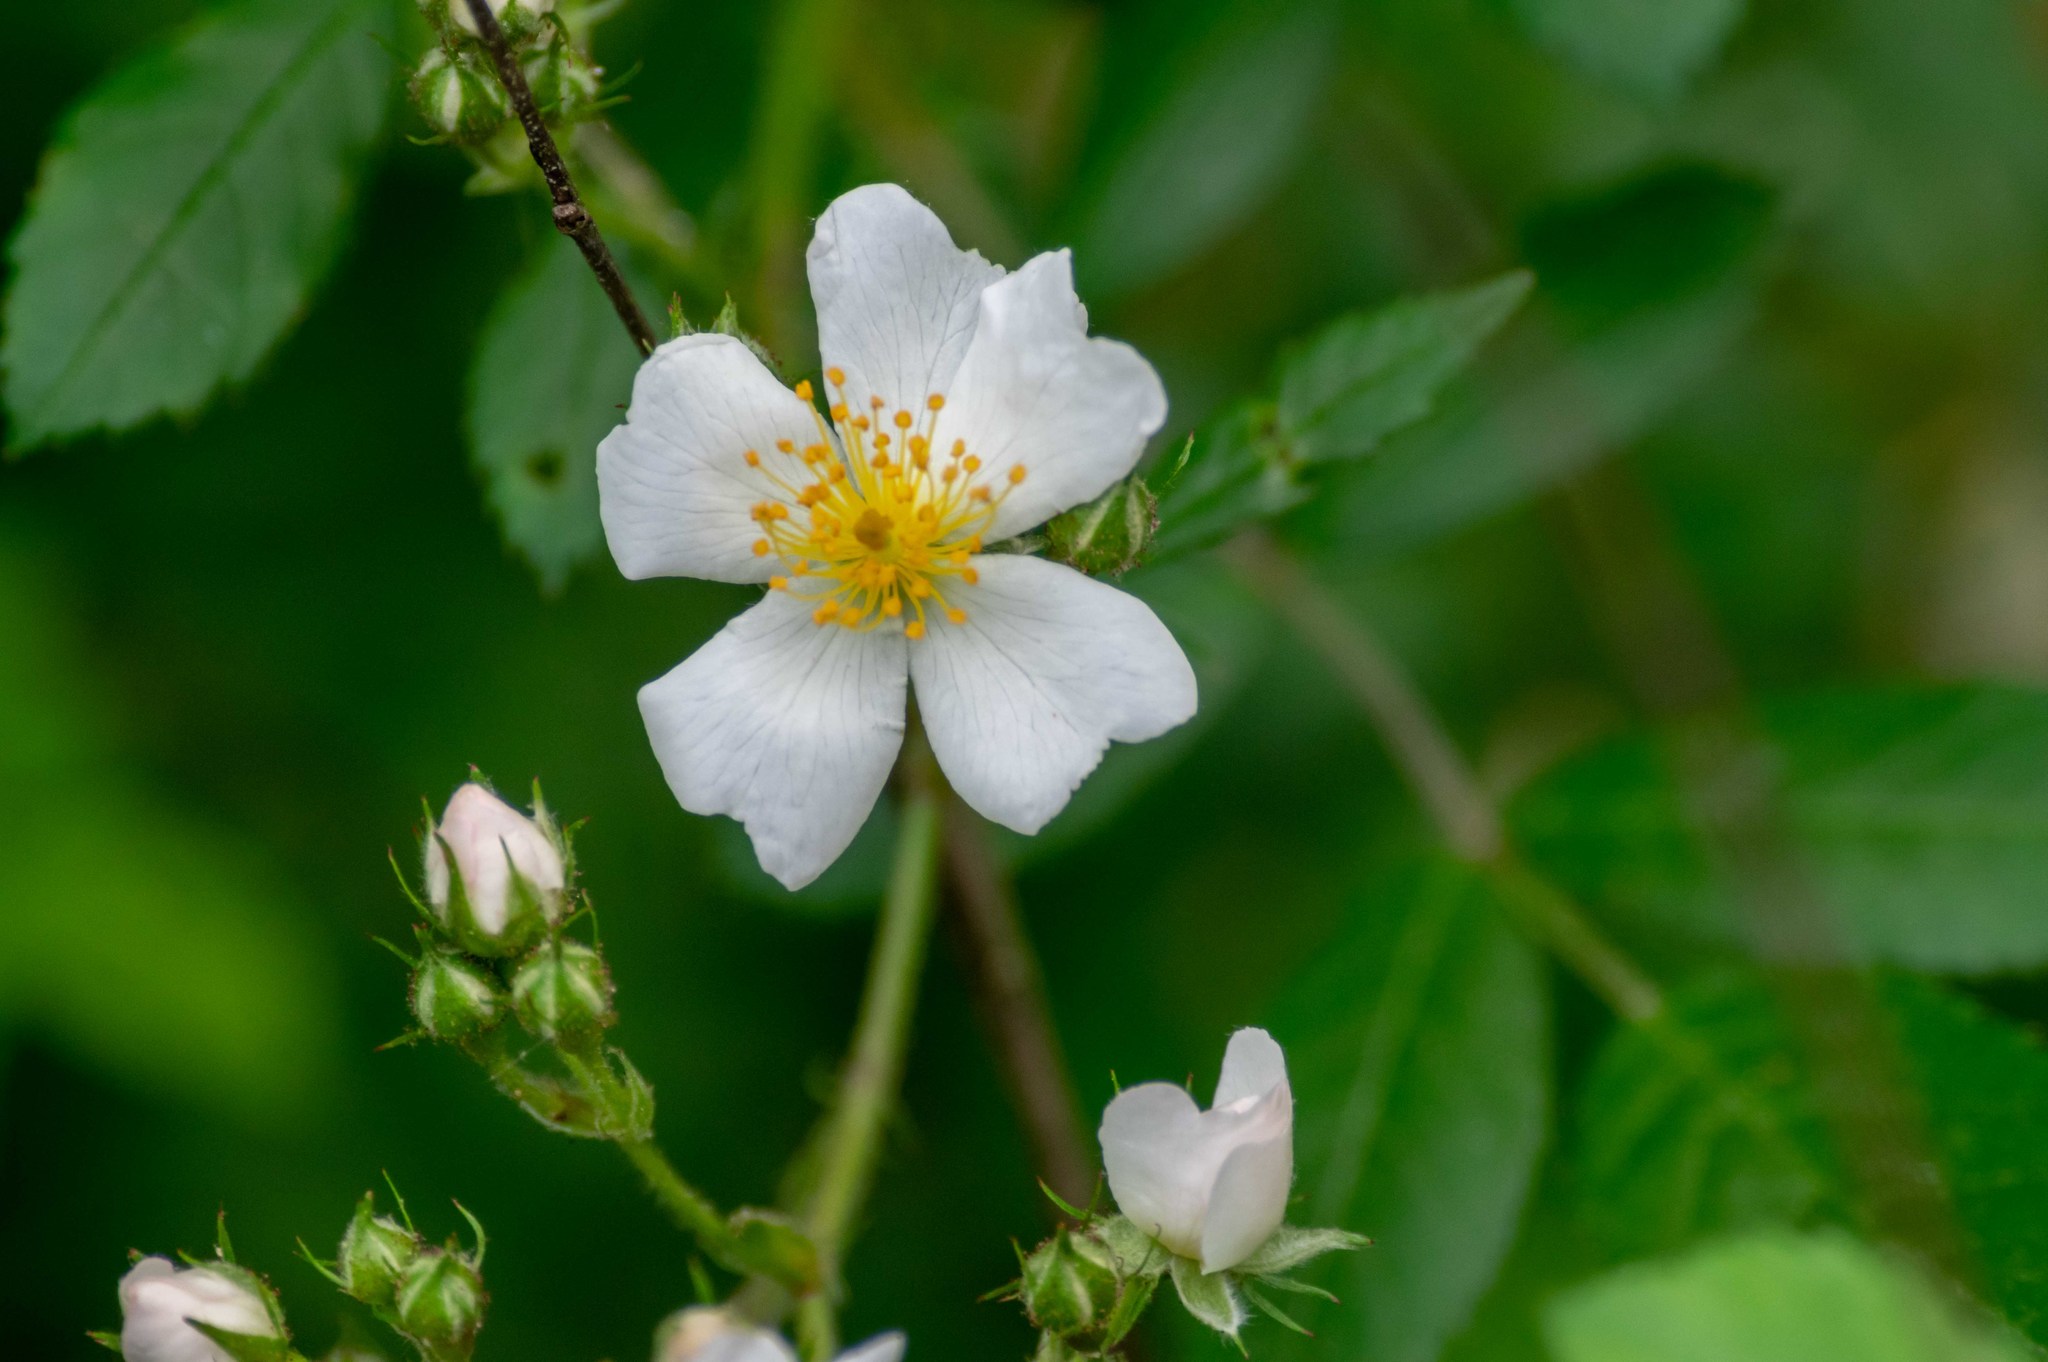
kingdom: Plantae
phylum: Tracheophyta
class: Magnoliopsida
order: Rosales
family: Rosaceae
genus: Rosa
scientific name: Rosa multiflora
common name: Multiflora rose
